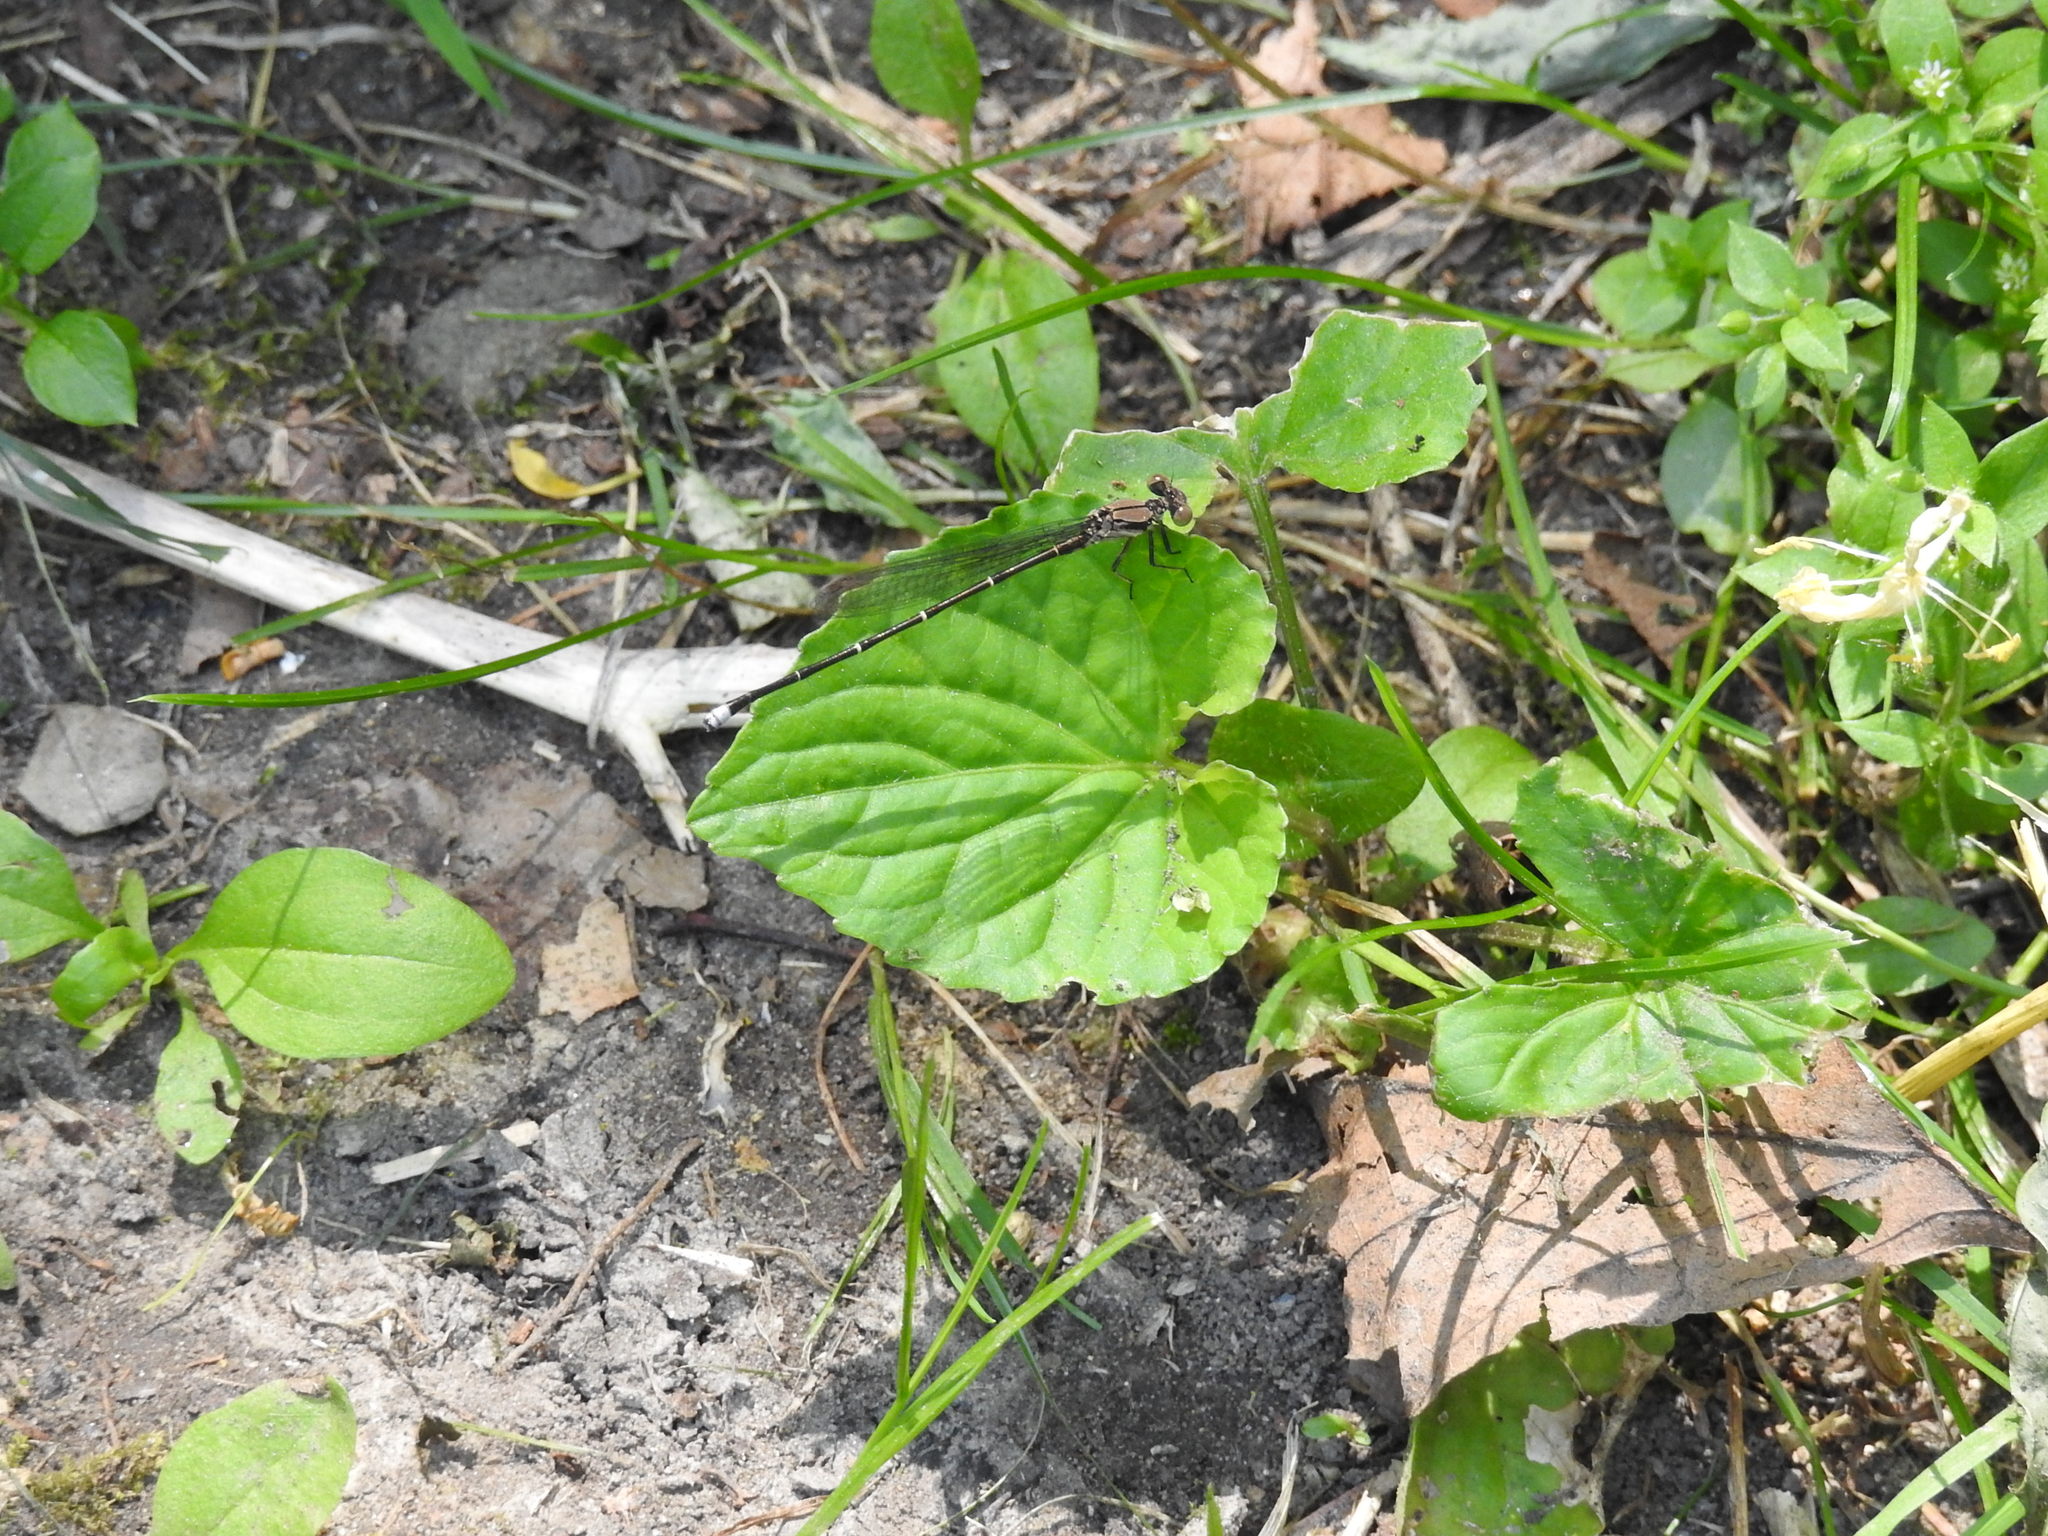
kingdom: Animalia
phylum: Arthropoda
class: Insecta
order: Odonata
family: Coenagrionidae
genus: Argia
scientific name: Argia tibialis
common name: Blue-tipped dancer
